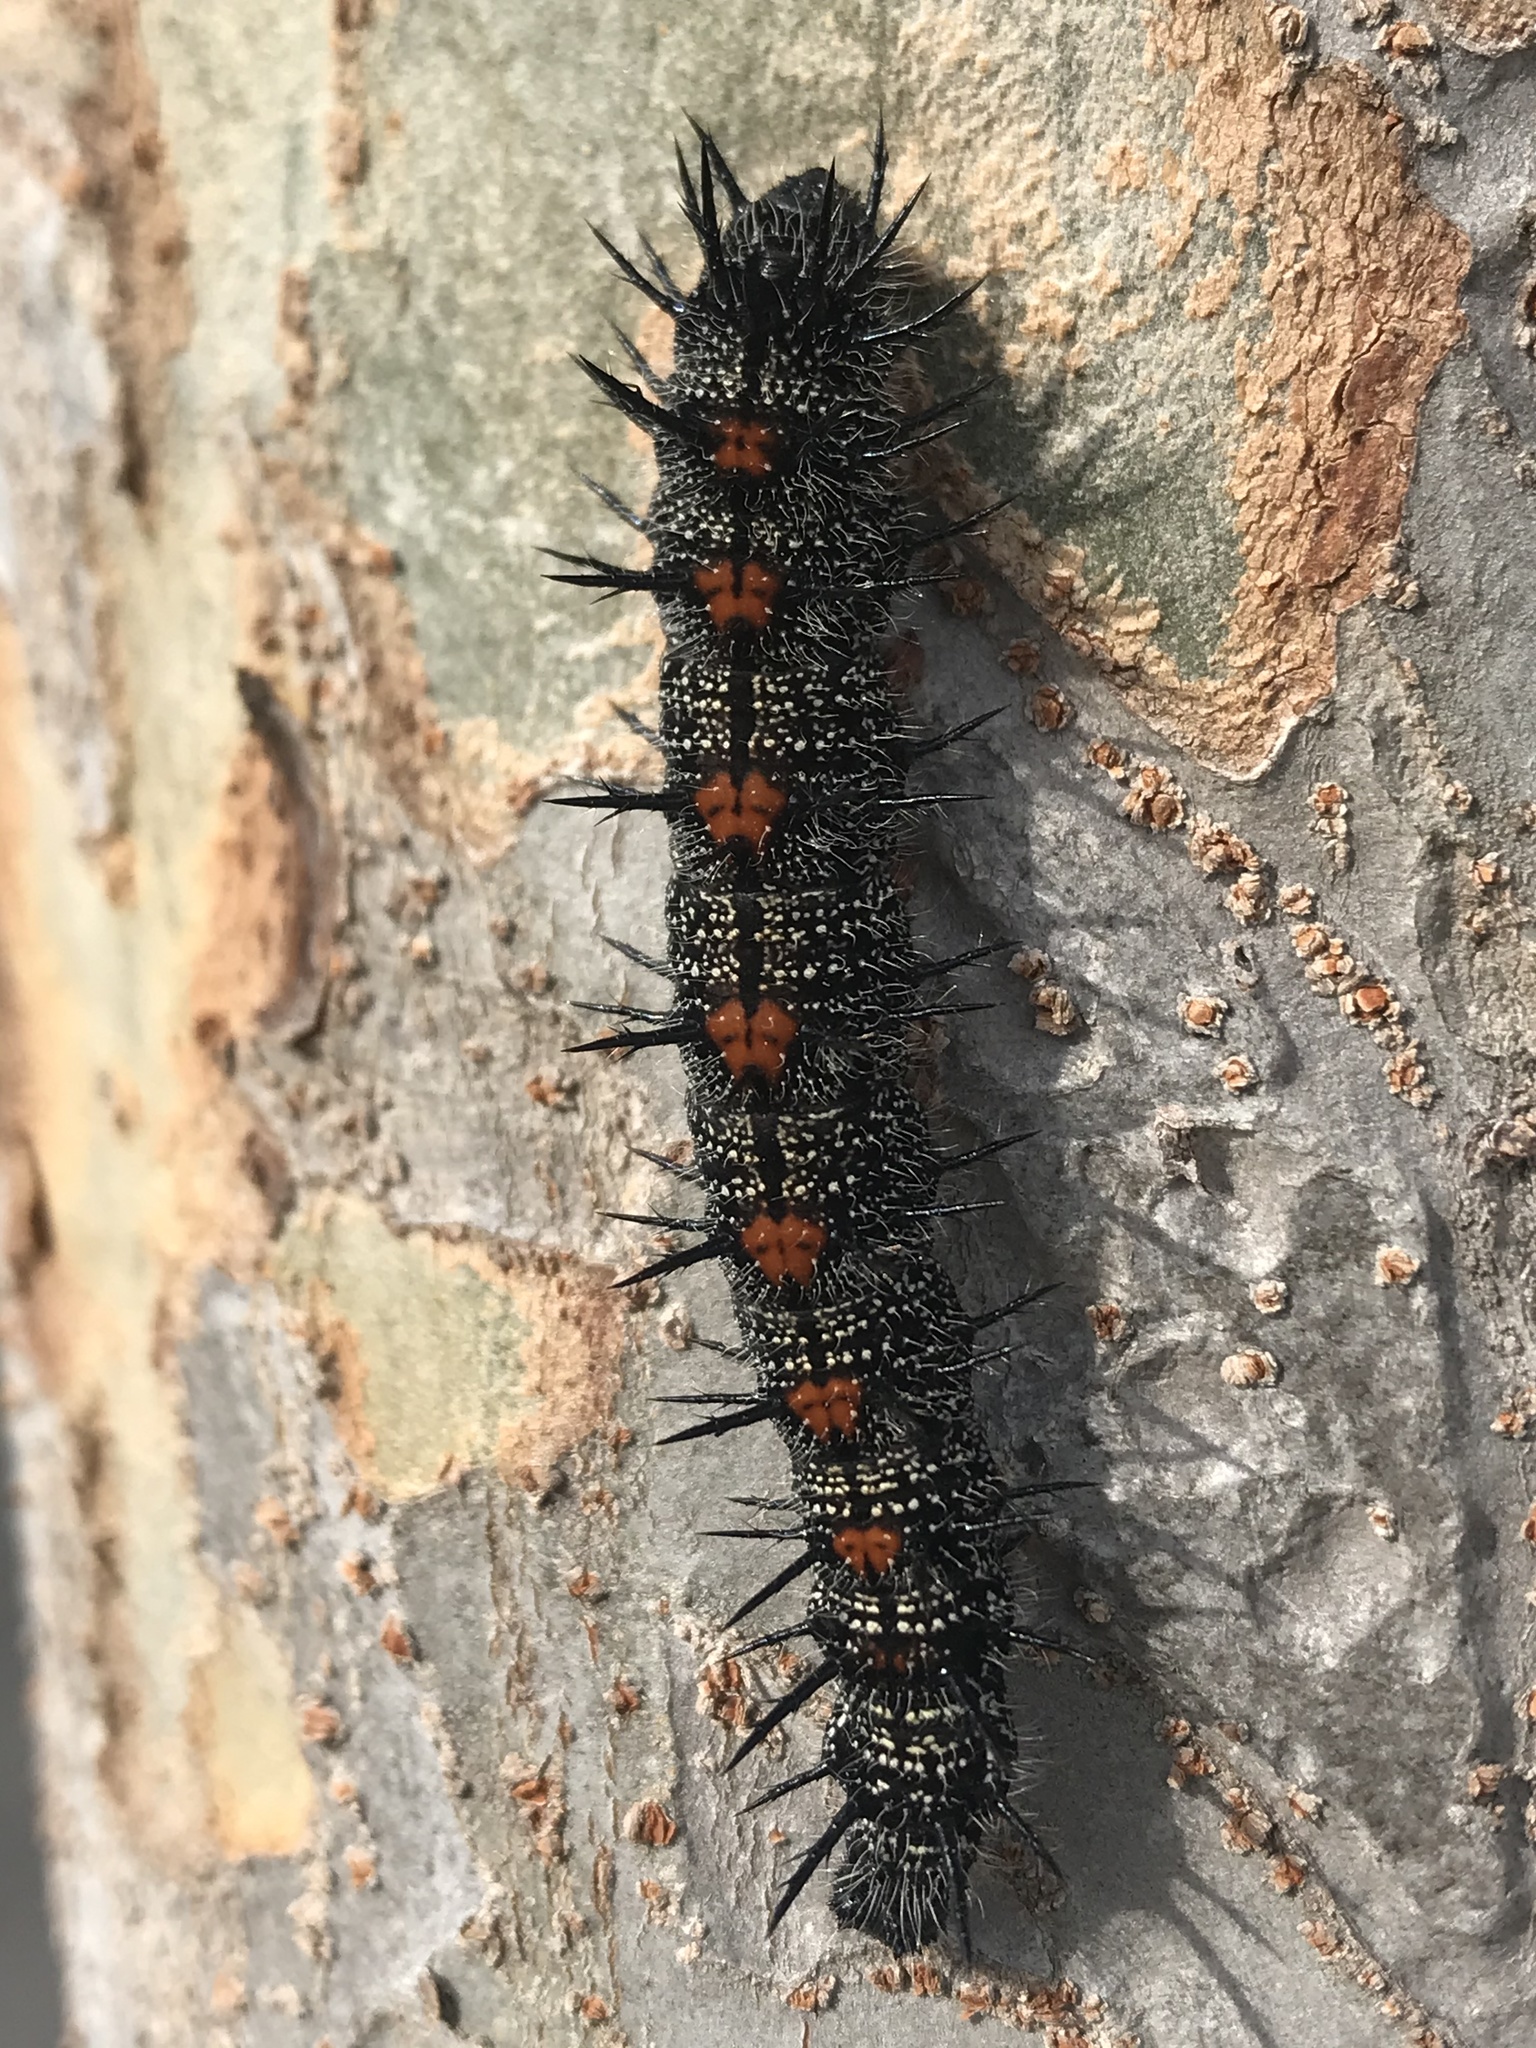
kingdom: Animalia
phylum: Arthropoda
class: Insecta
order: Lepidoptera
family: Nymphalidae
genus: Nymphalis
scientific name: Nymphalis antiopa
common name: Camberwell beauty
